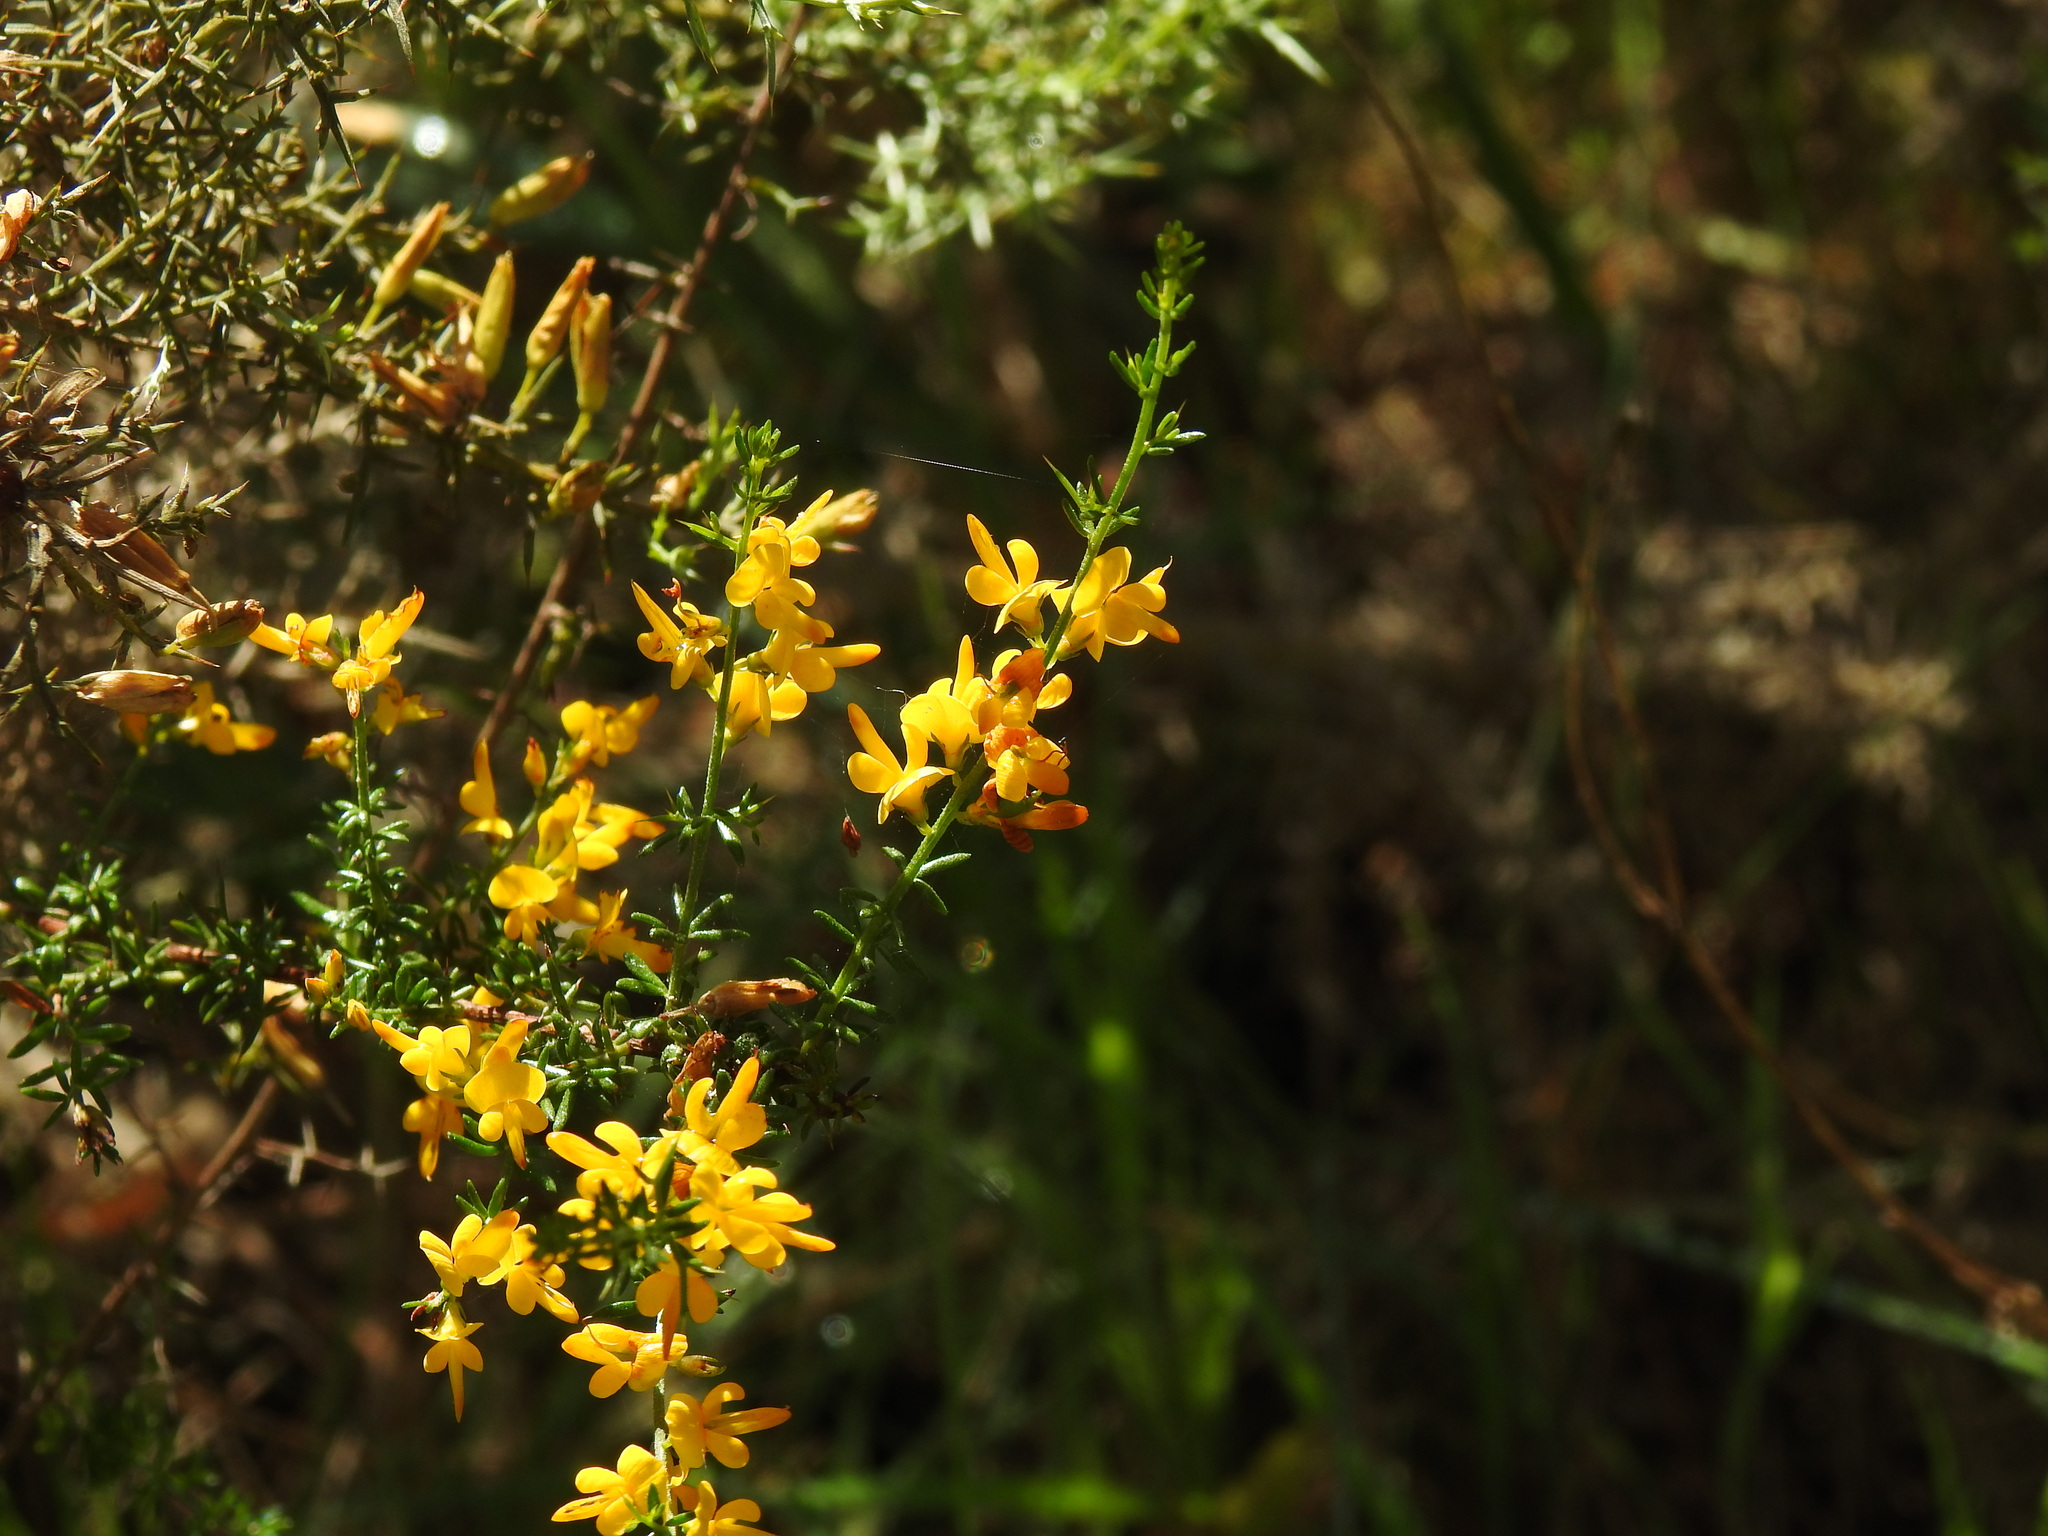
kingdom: Plantae
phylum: Tracheophyta
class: Magnoliopsida
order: Fabales
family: Fabaceae
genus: Genista
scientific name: Genista triacanthos
